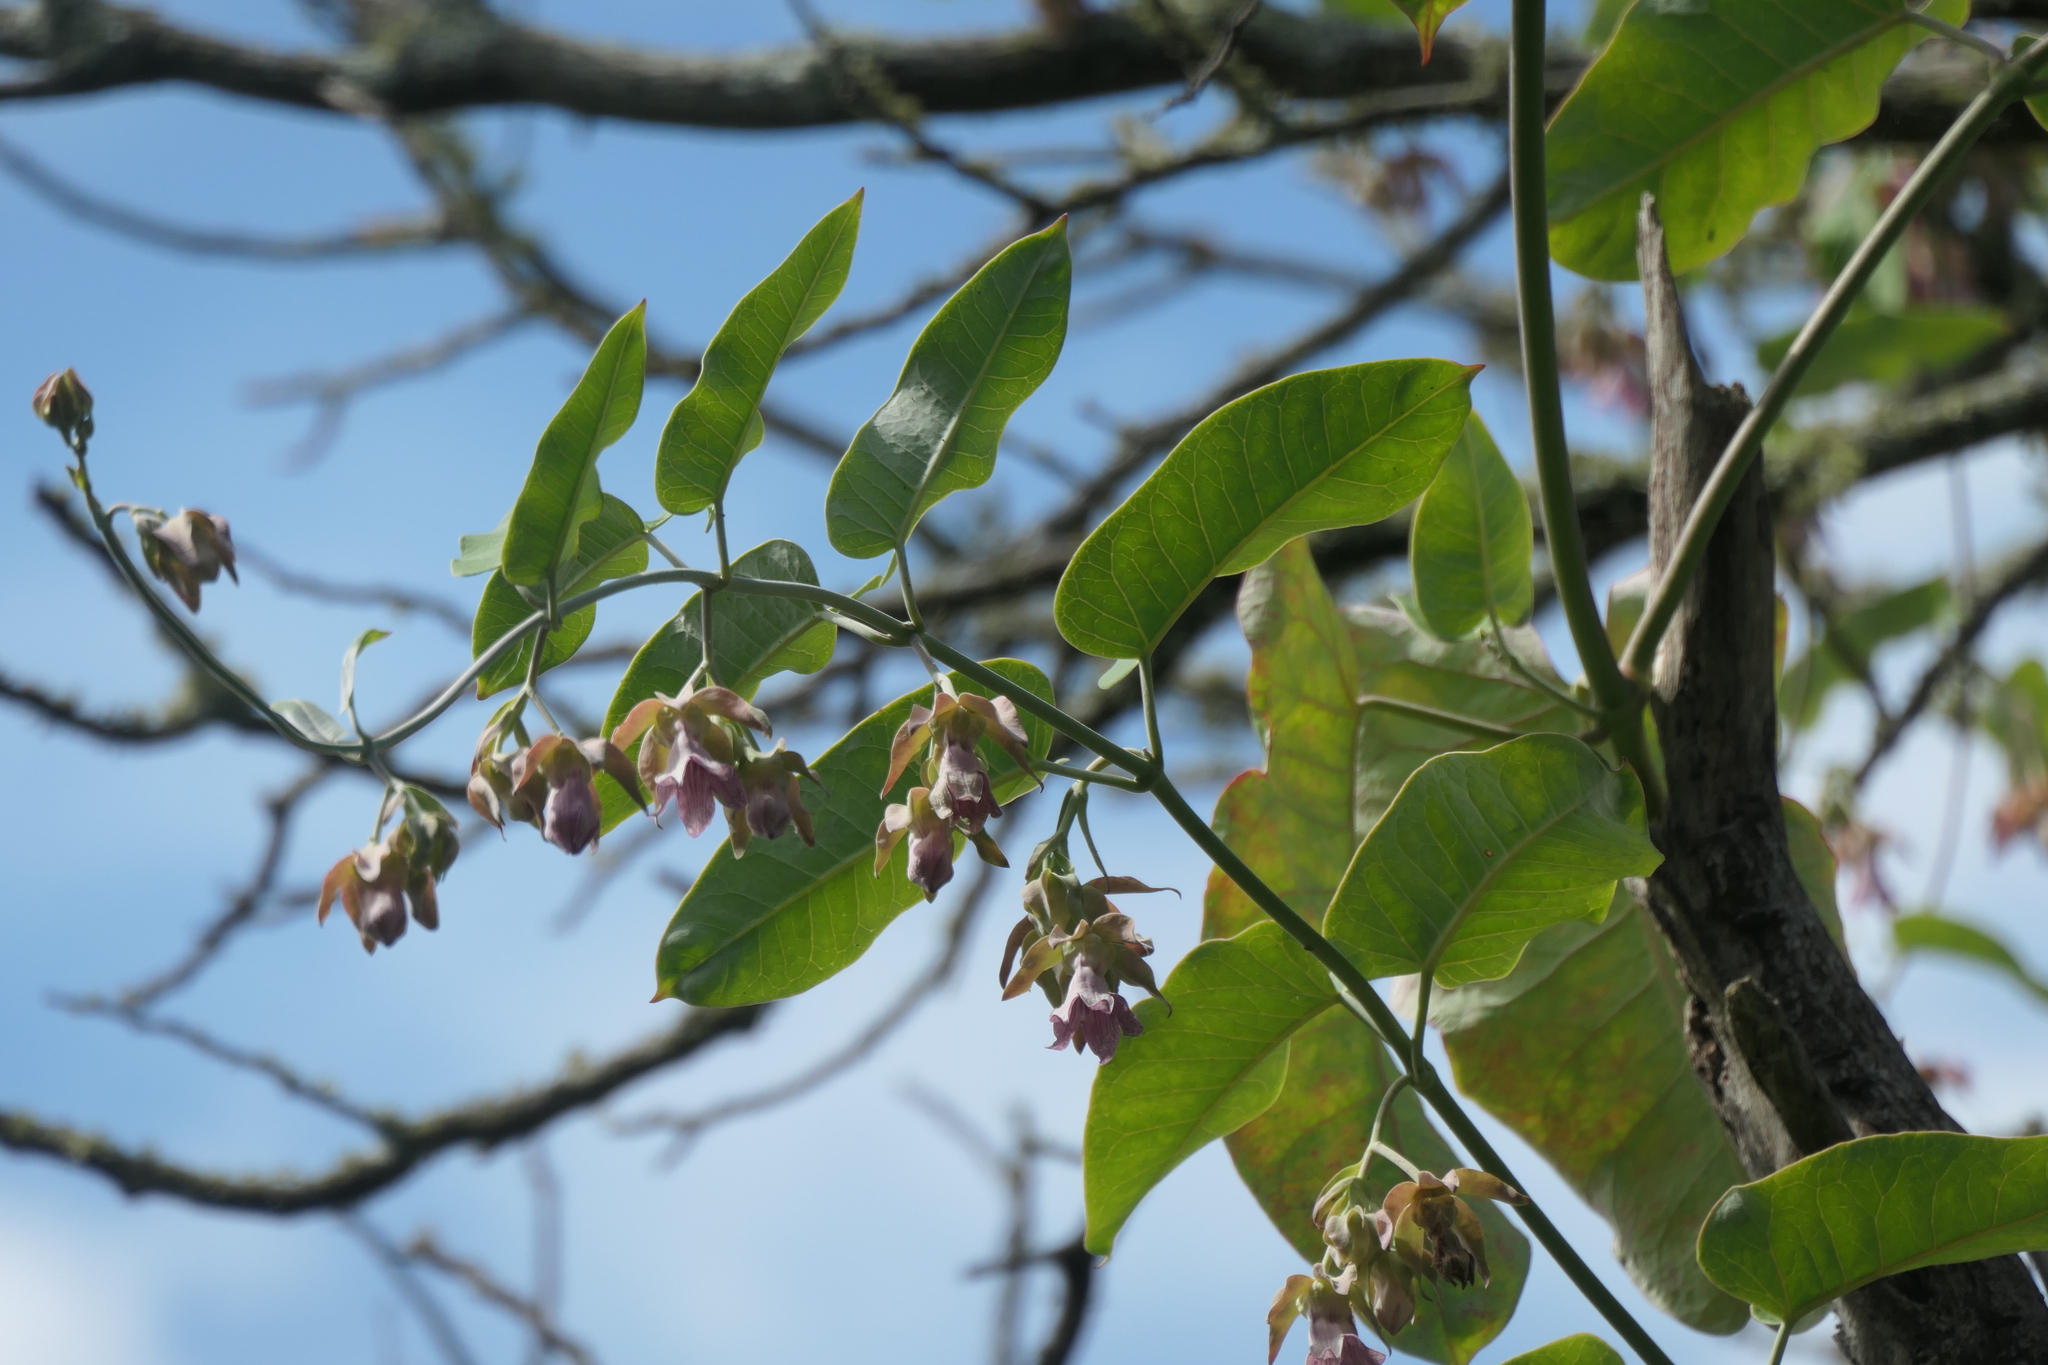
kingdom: Plantae
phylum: Tracheophyta
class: Magnoliopsida
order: Gentianales
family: Apocynaceae
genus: Araujia
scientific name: Araujia sericifera
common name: White bladderflower
